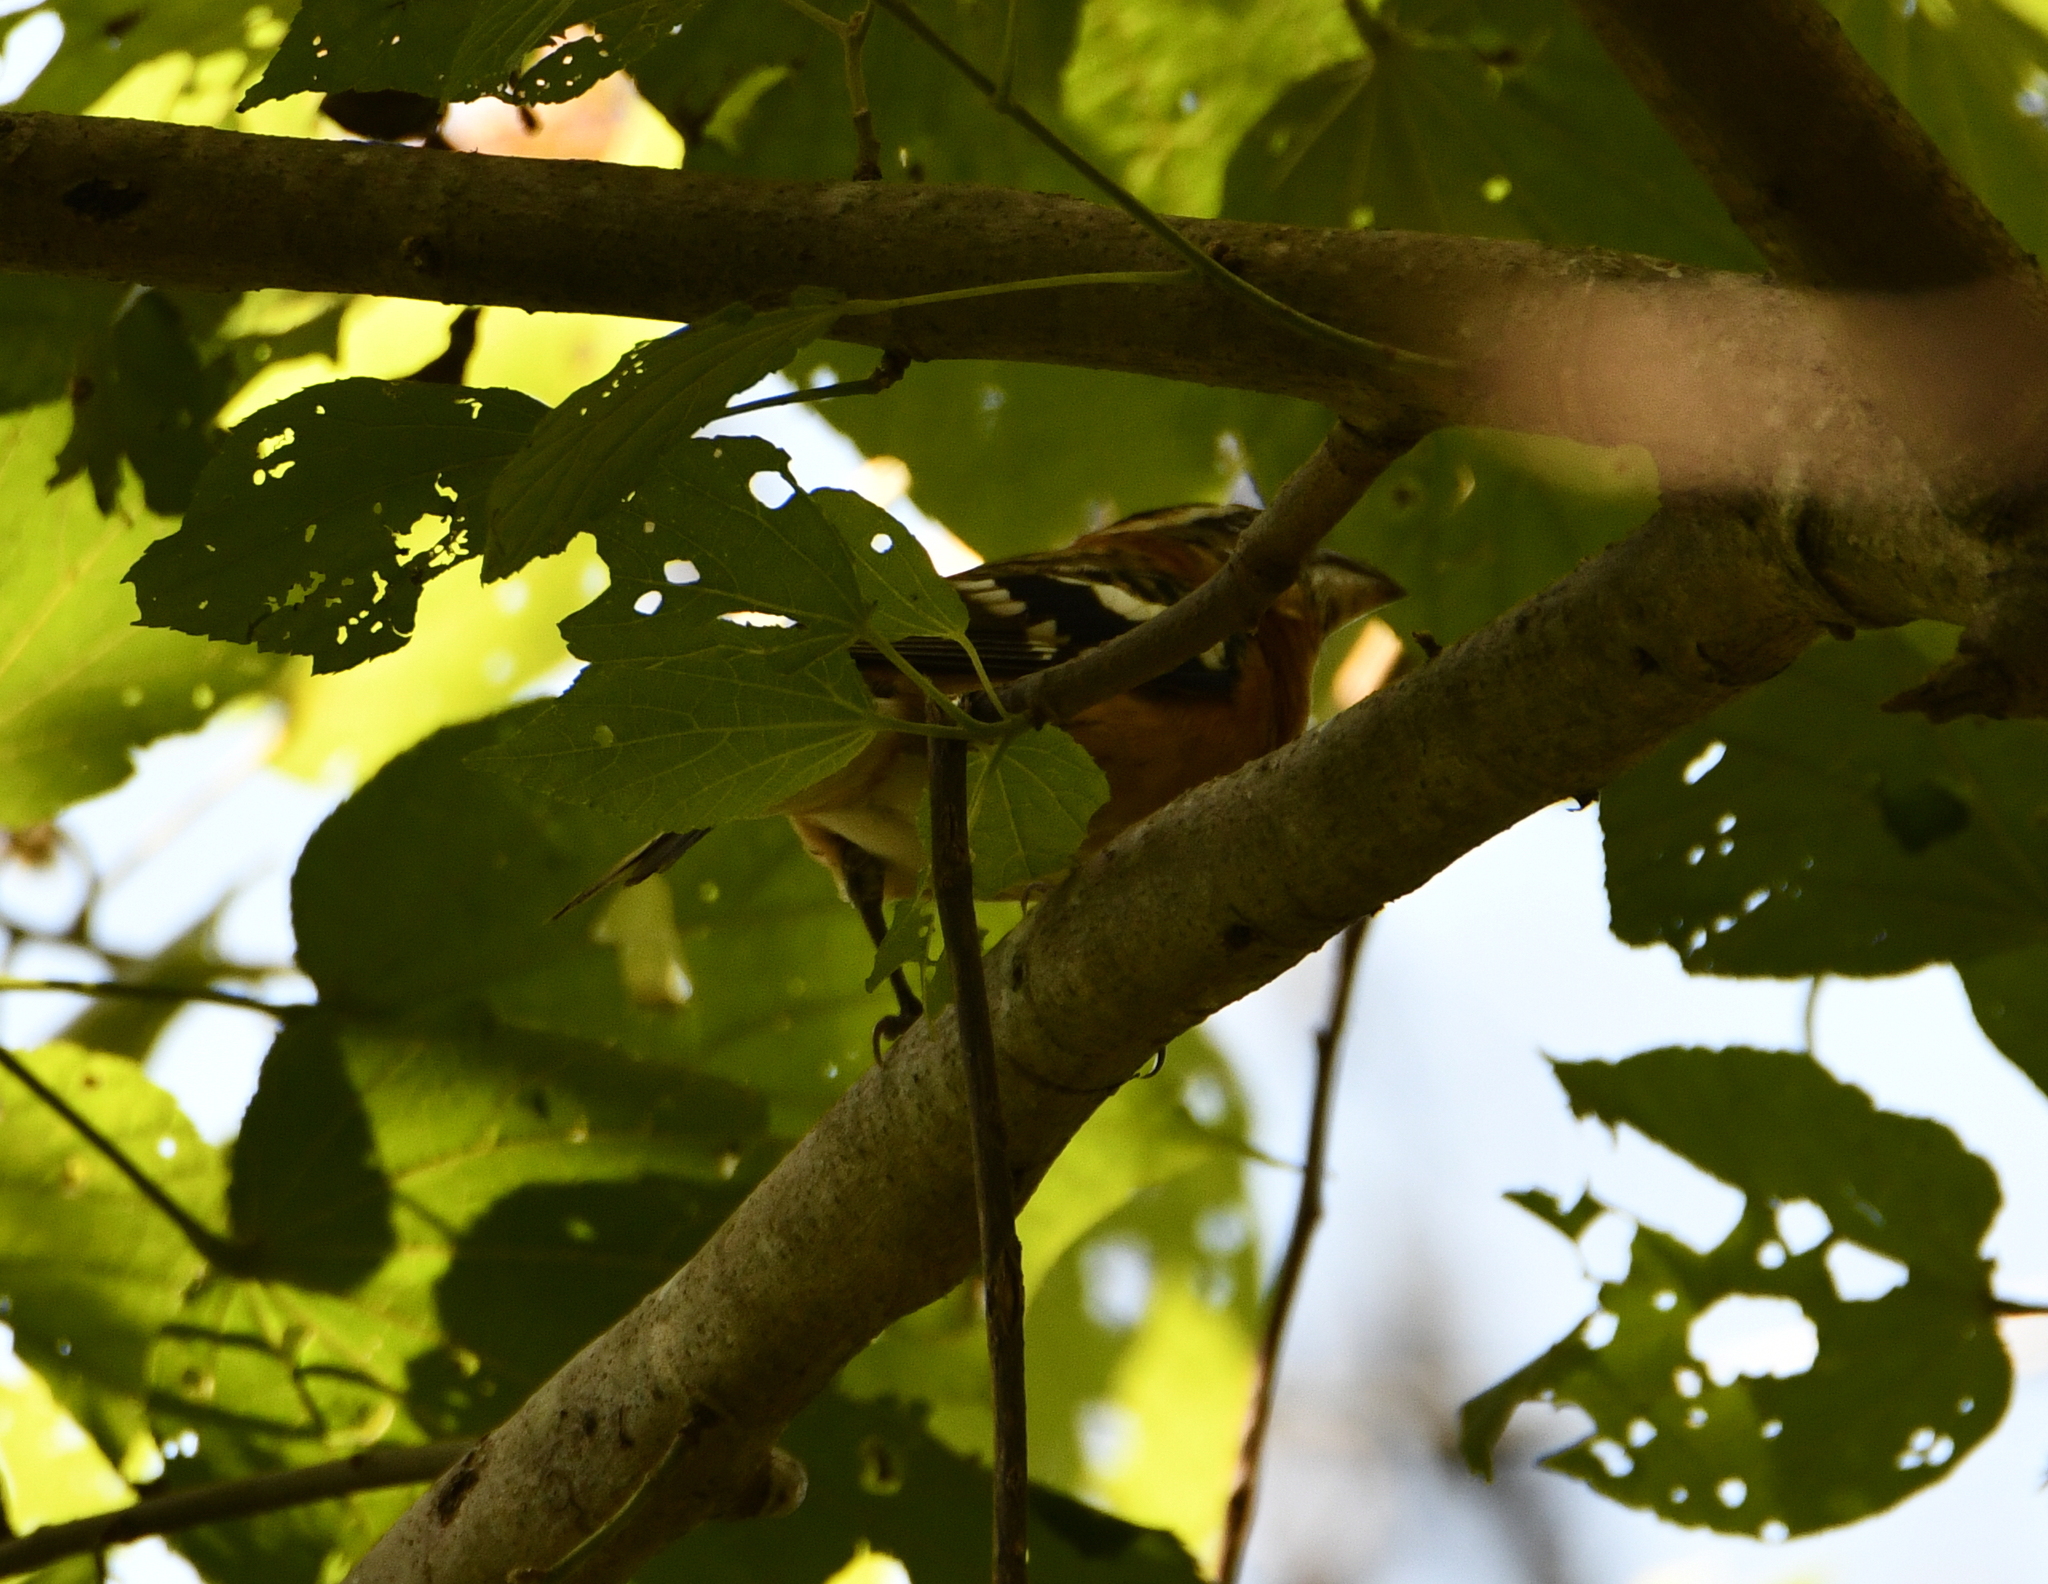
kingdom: Animalia
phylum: Chordata
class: Aves
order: Passeriformes
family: Cardinalidae
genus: Pheucticus
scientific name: Pheucticus melanocephalus
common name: Black-headed grosbeak
